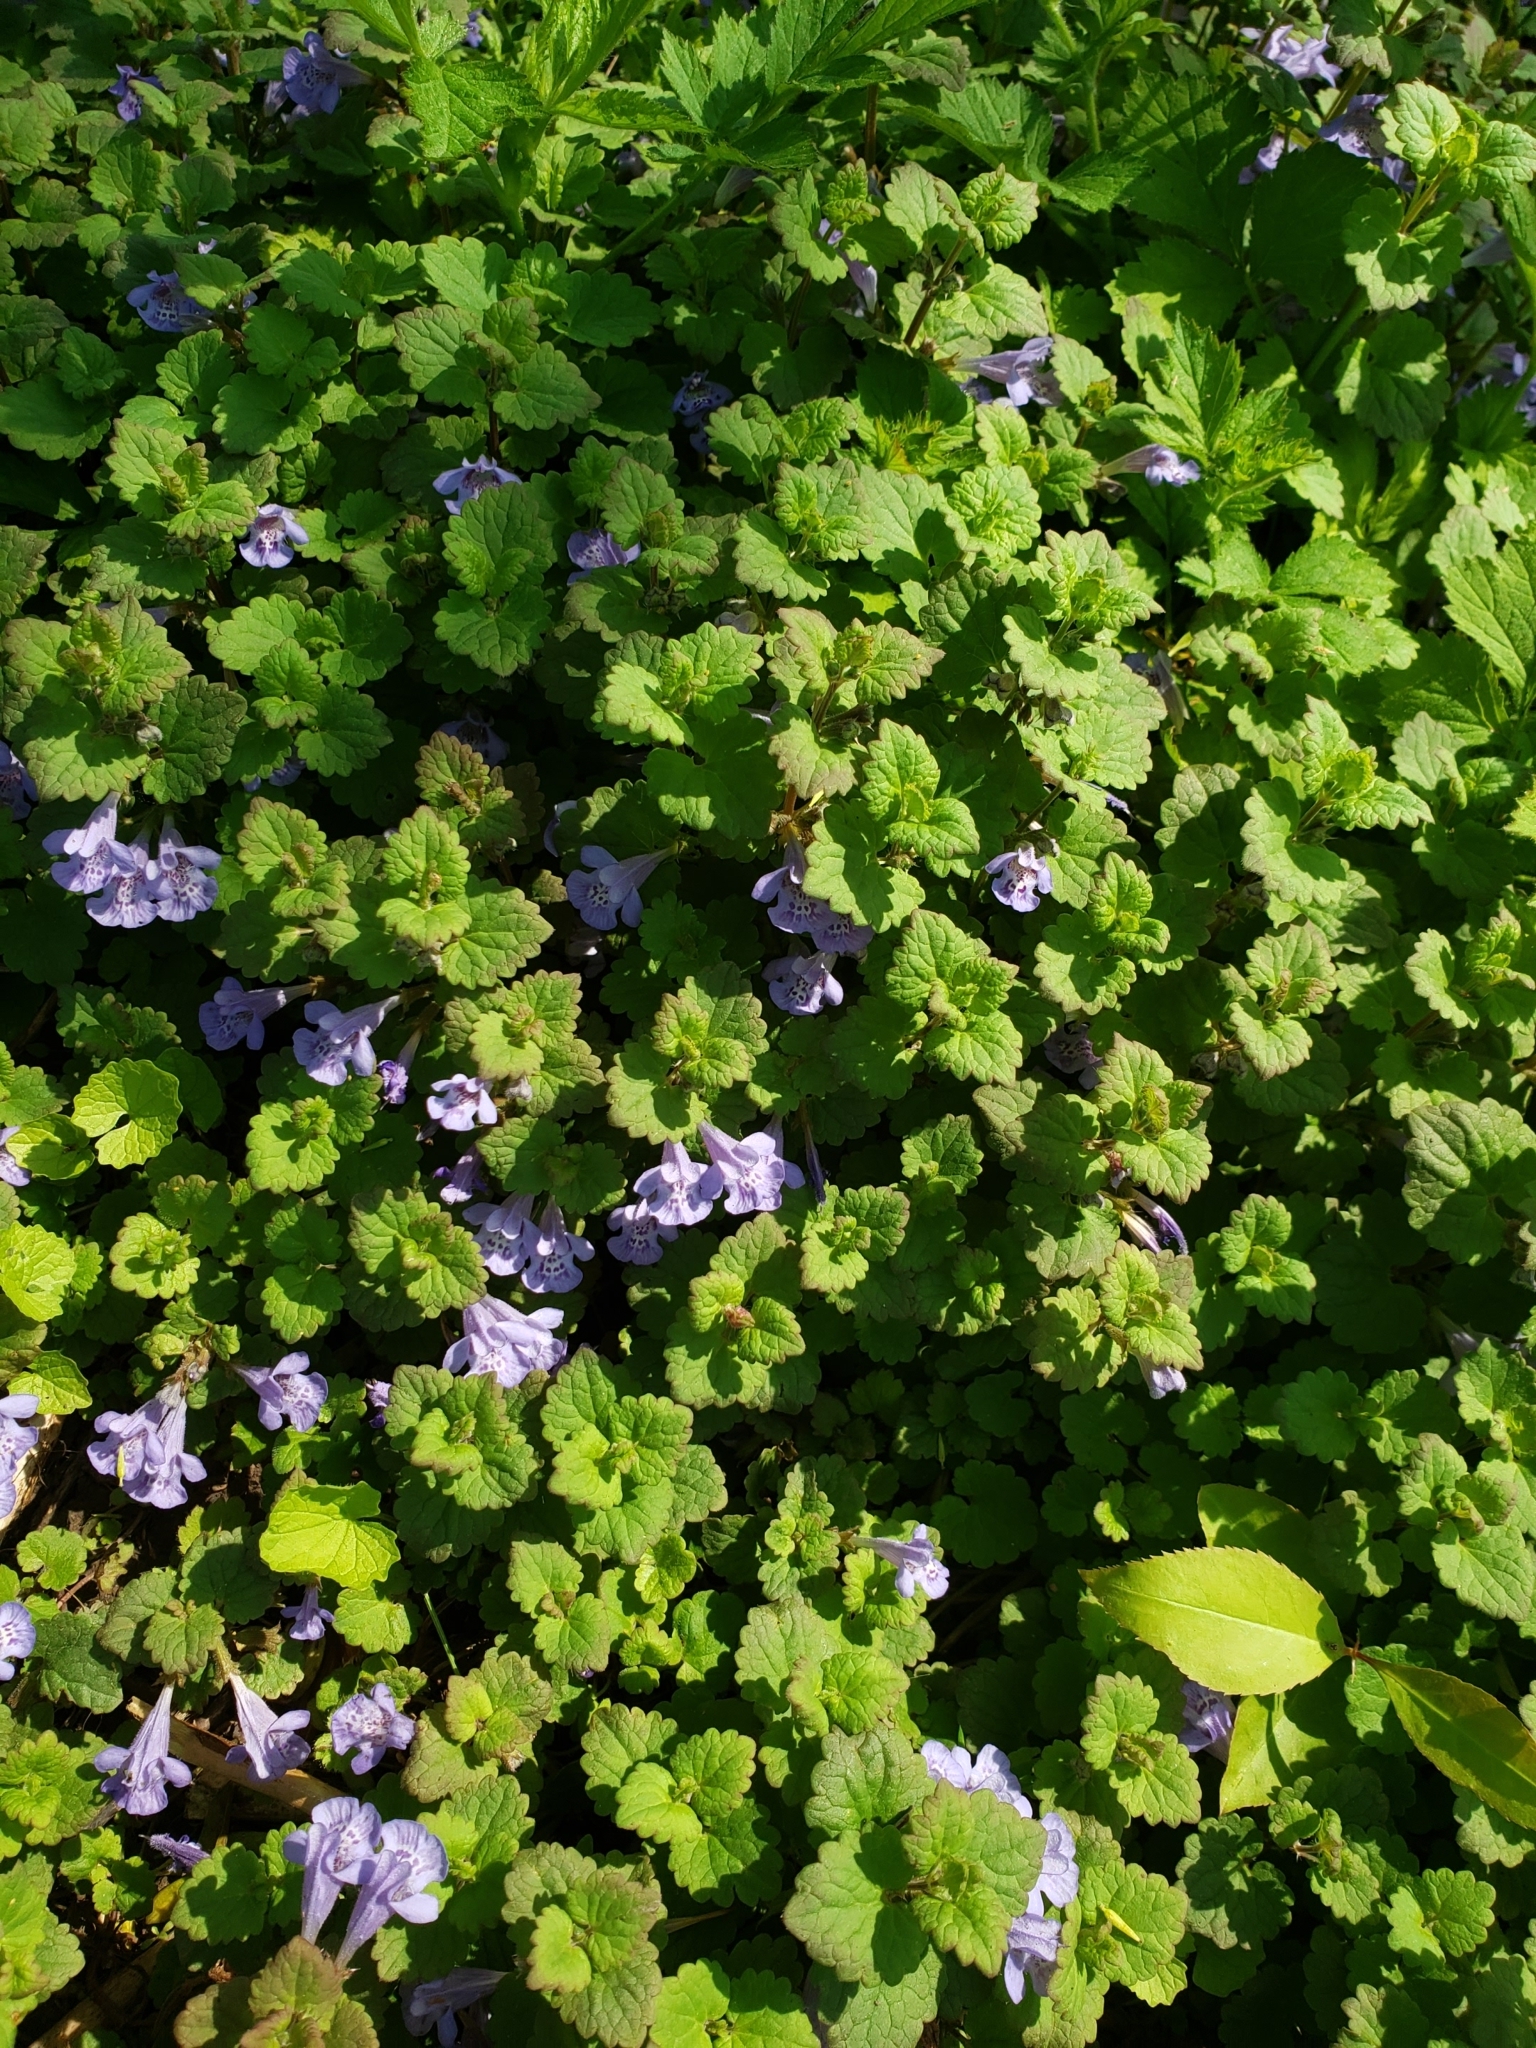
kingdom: Plantae
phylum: Tracheophyta
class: Magnoliopsida
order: Lamiales
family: Lamiaceae
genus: Glechoma
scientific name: Glechoma hederacea
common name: Ground ivy
